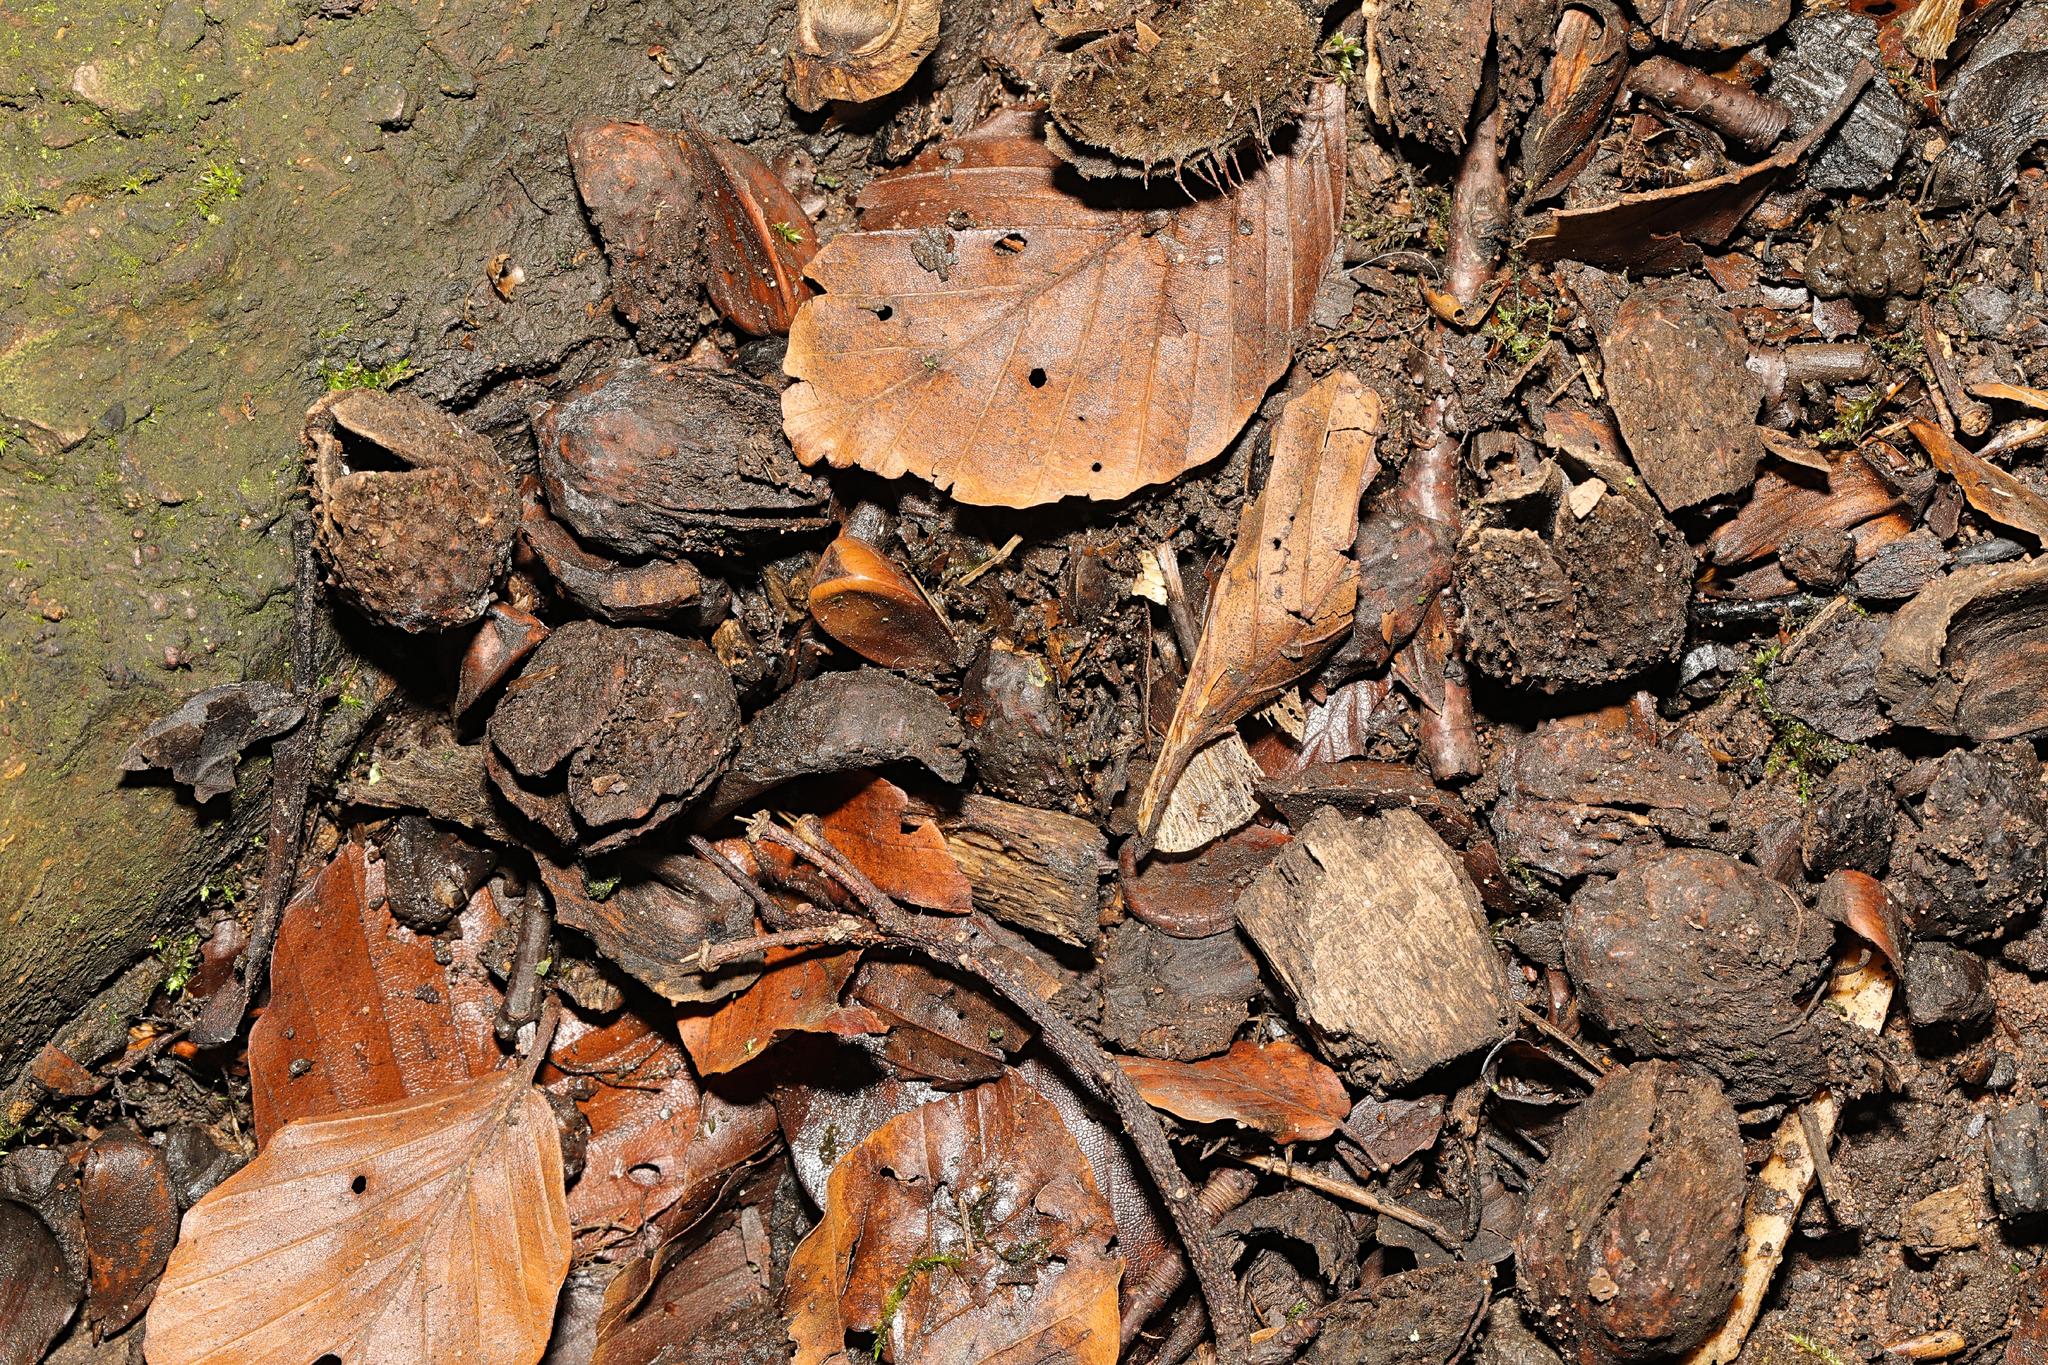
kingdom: Plantae
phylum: Tracheophyta
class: Magnoliopsida
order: Fagales
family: Fagaceae
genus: Fagus
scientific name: Fagus sylvatica
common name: Beech
